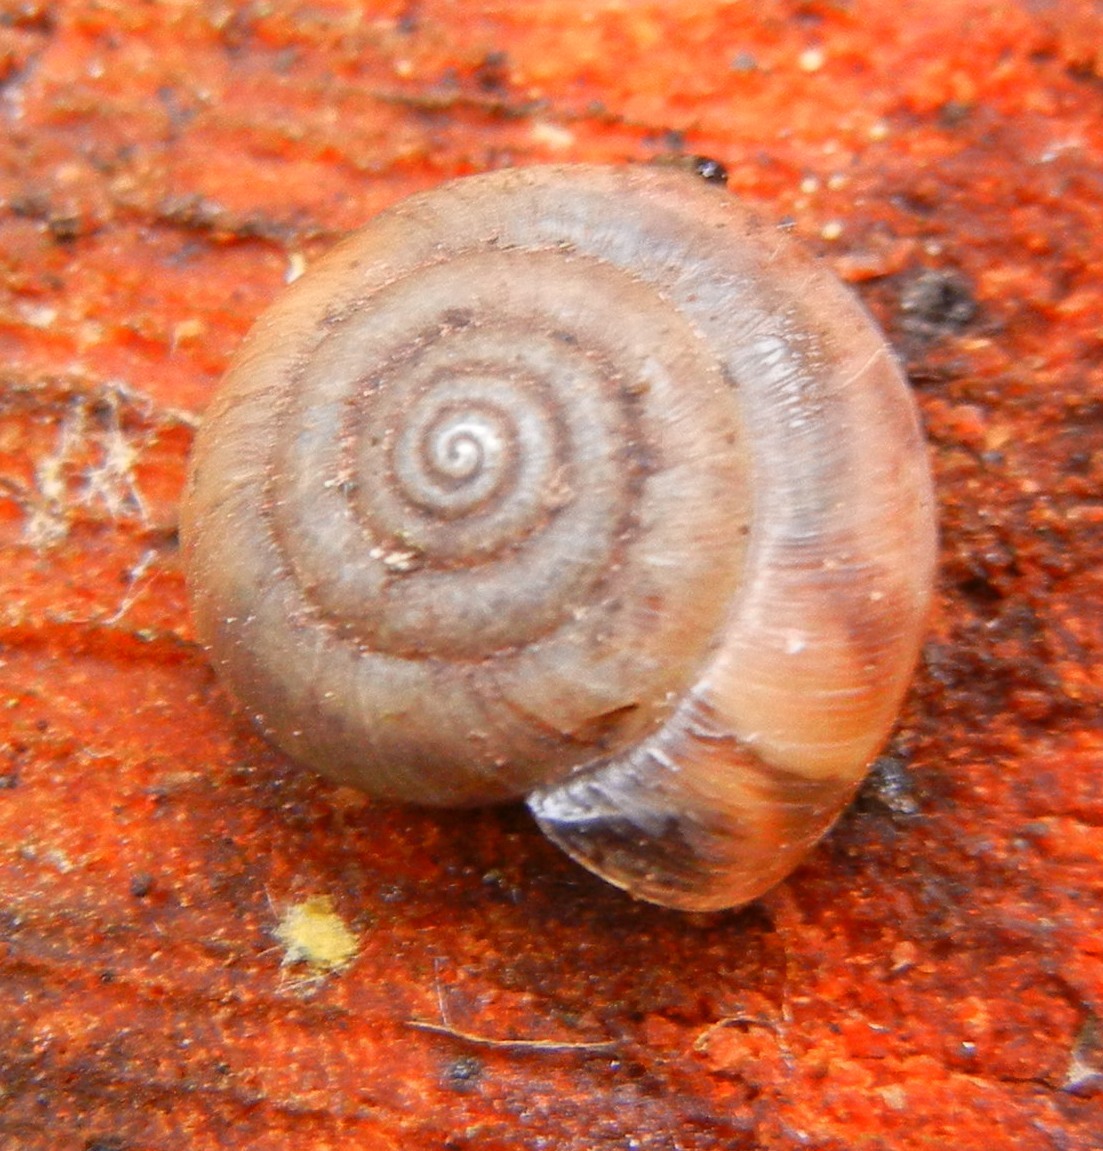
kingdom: Animalia
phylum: Mollusca
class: Gastropoda
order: Stylommatophora
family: Hygromiidae
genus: Trochulus
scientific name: Trochulus striolatus
